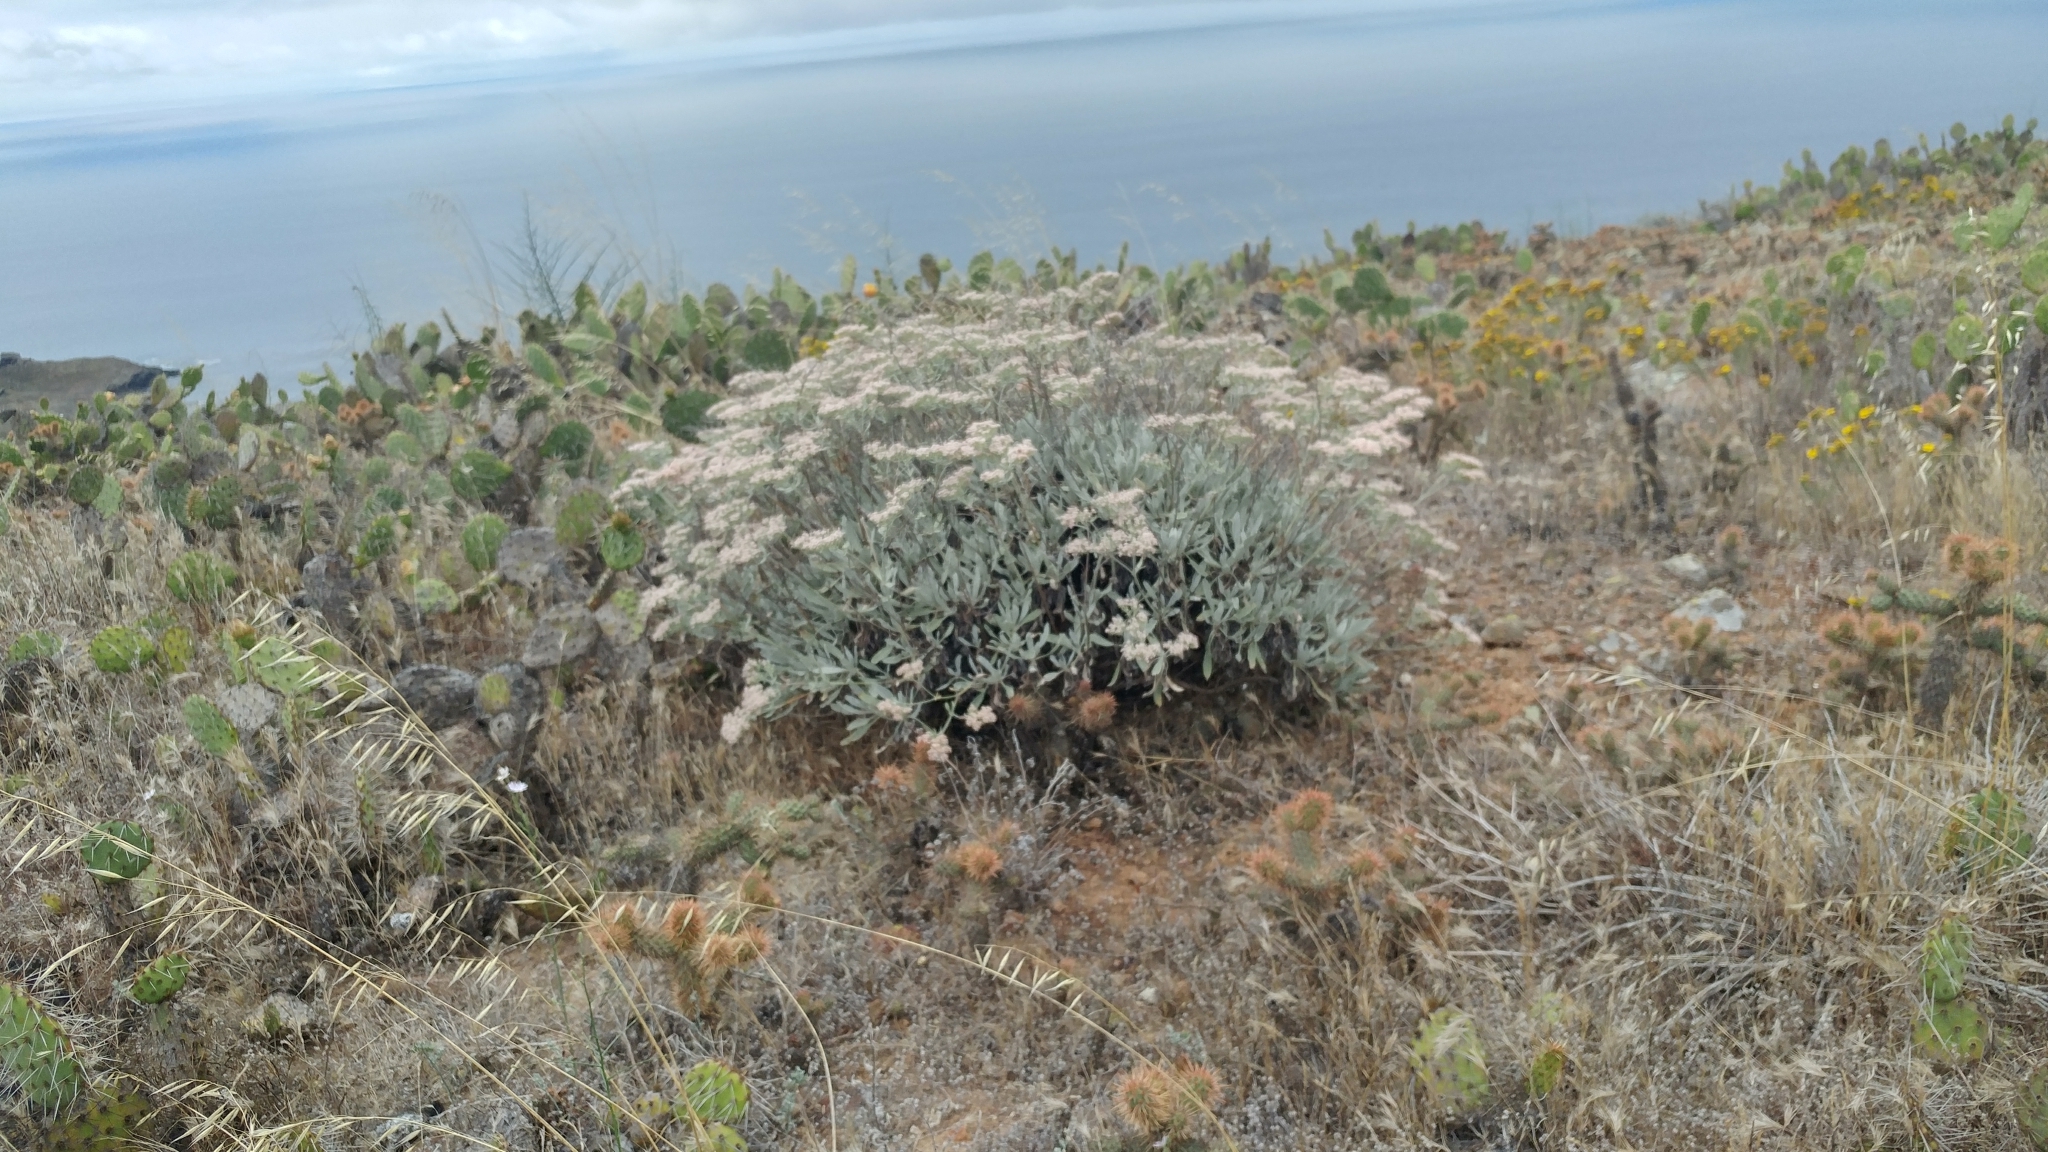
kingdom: Plantae
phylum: Tracheophyta
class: Magnoliopsida
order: Caryophyllales
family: Polygonaceae
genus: Eriogonum
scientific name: Eriogonum giganteum
